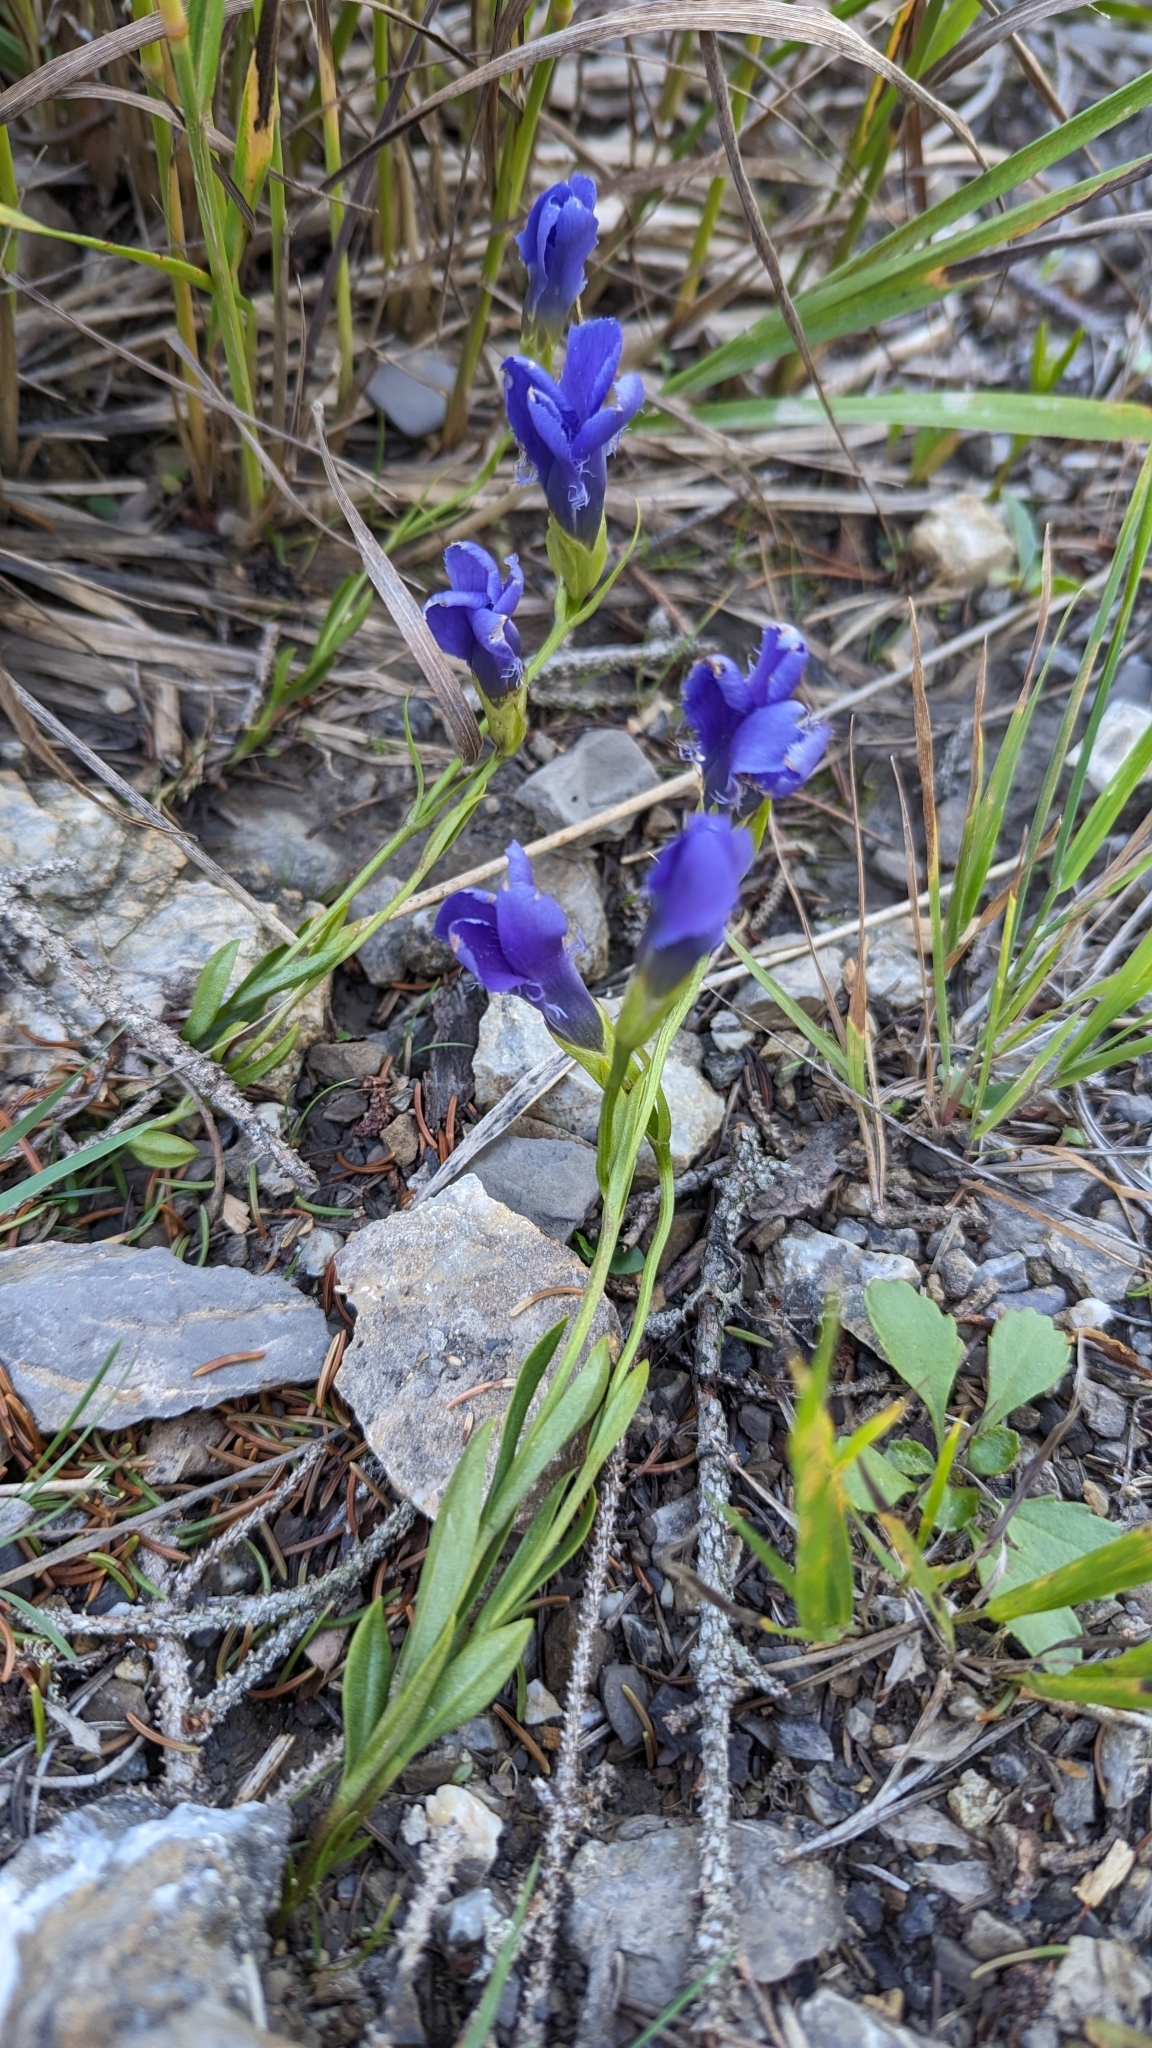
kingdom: Plantae
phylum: Tracheophyta
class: Magnoliopsida
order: Gentianales
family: Gentianaceae
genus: Gentianopsis
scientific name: Gentianopsis ciliata
